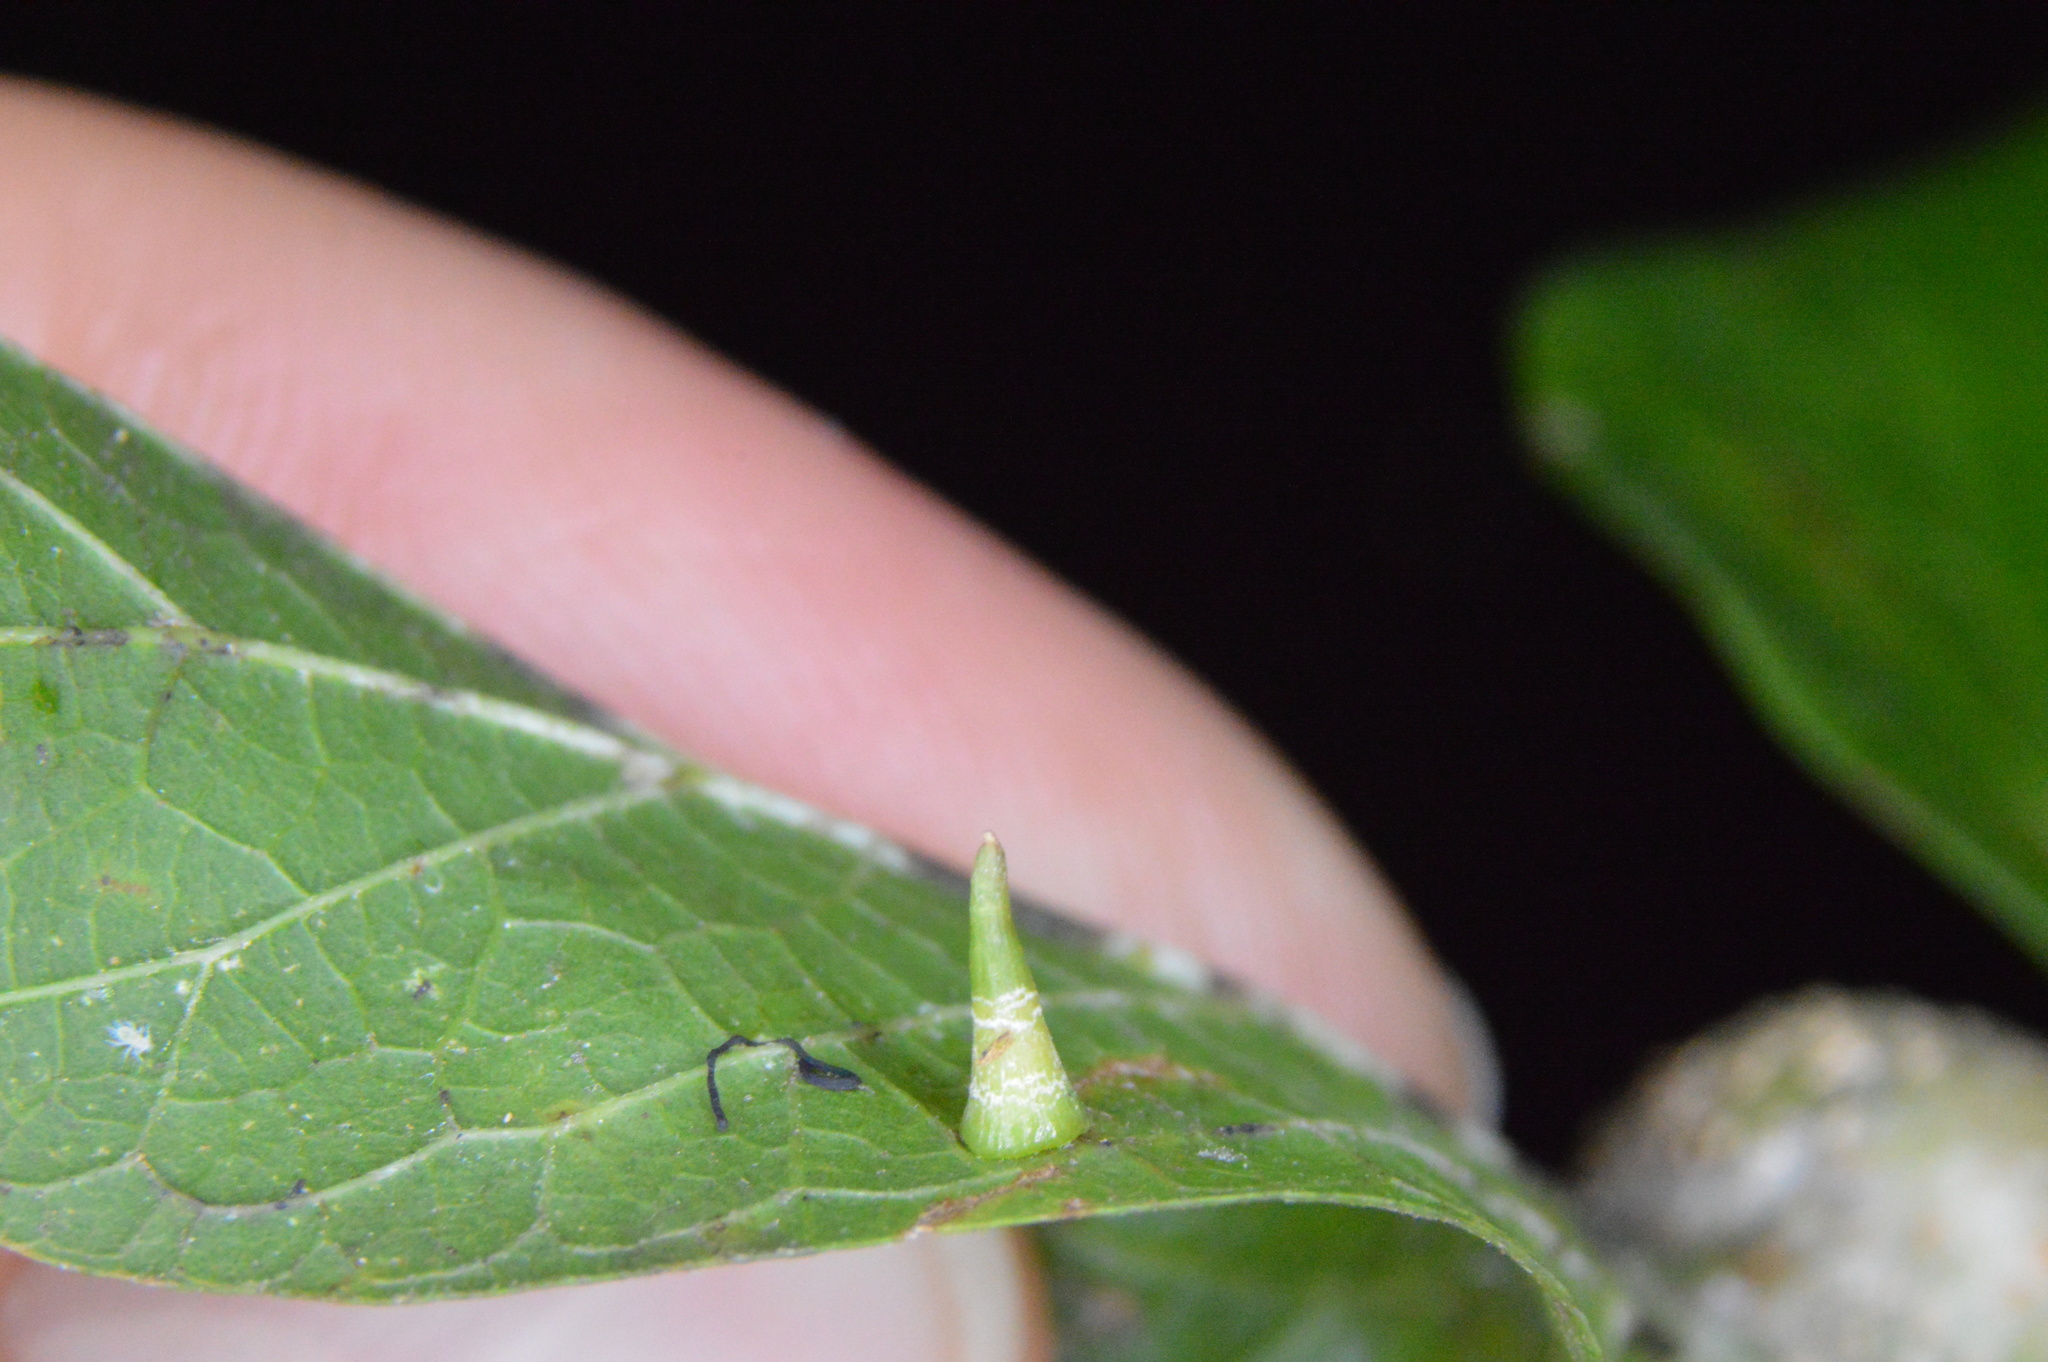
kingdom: Animalia
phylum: Arthropoda
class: Insecta
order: Diptera
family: Cecidomyiidae
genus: Celticecis
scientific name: Celticecis subulata
